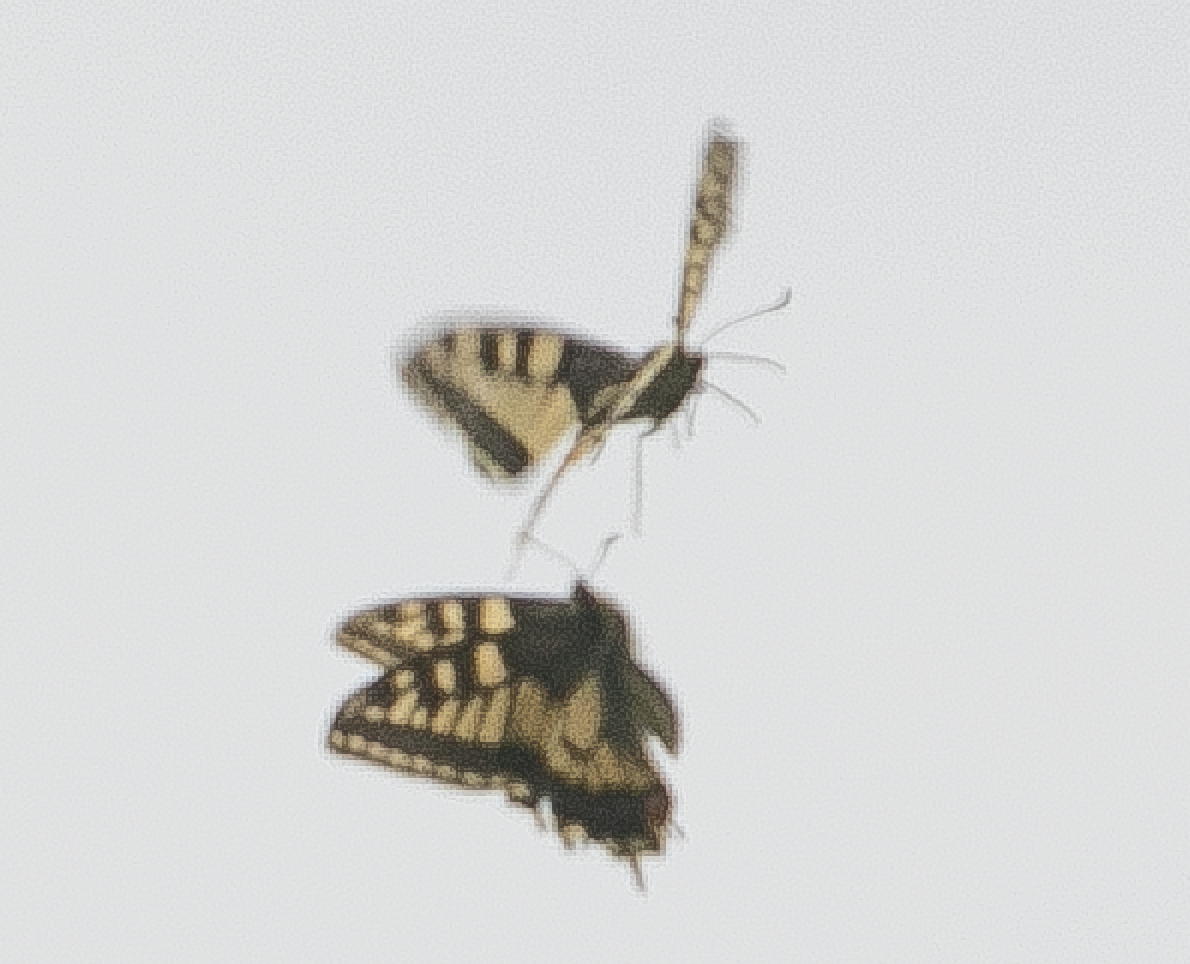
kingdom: Animalia
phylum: Arthropoda
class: Insecta
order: Lepidoptera
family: Papilionidae
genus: Papilio
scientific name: Papilio machaon
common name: Swallowtail
